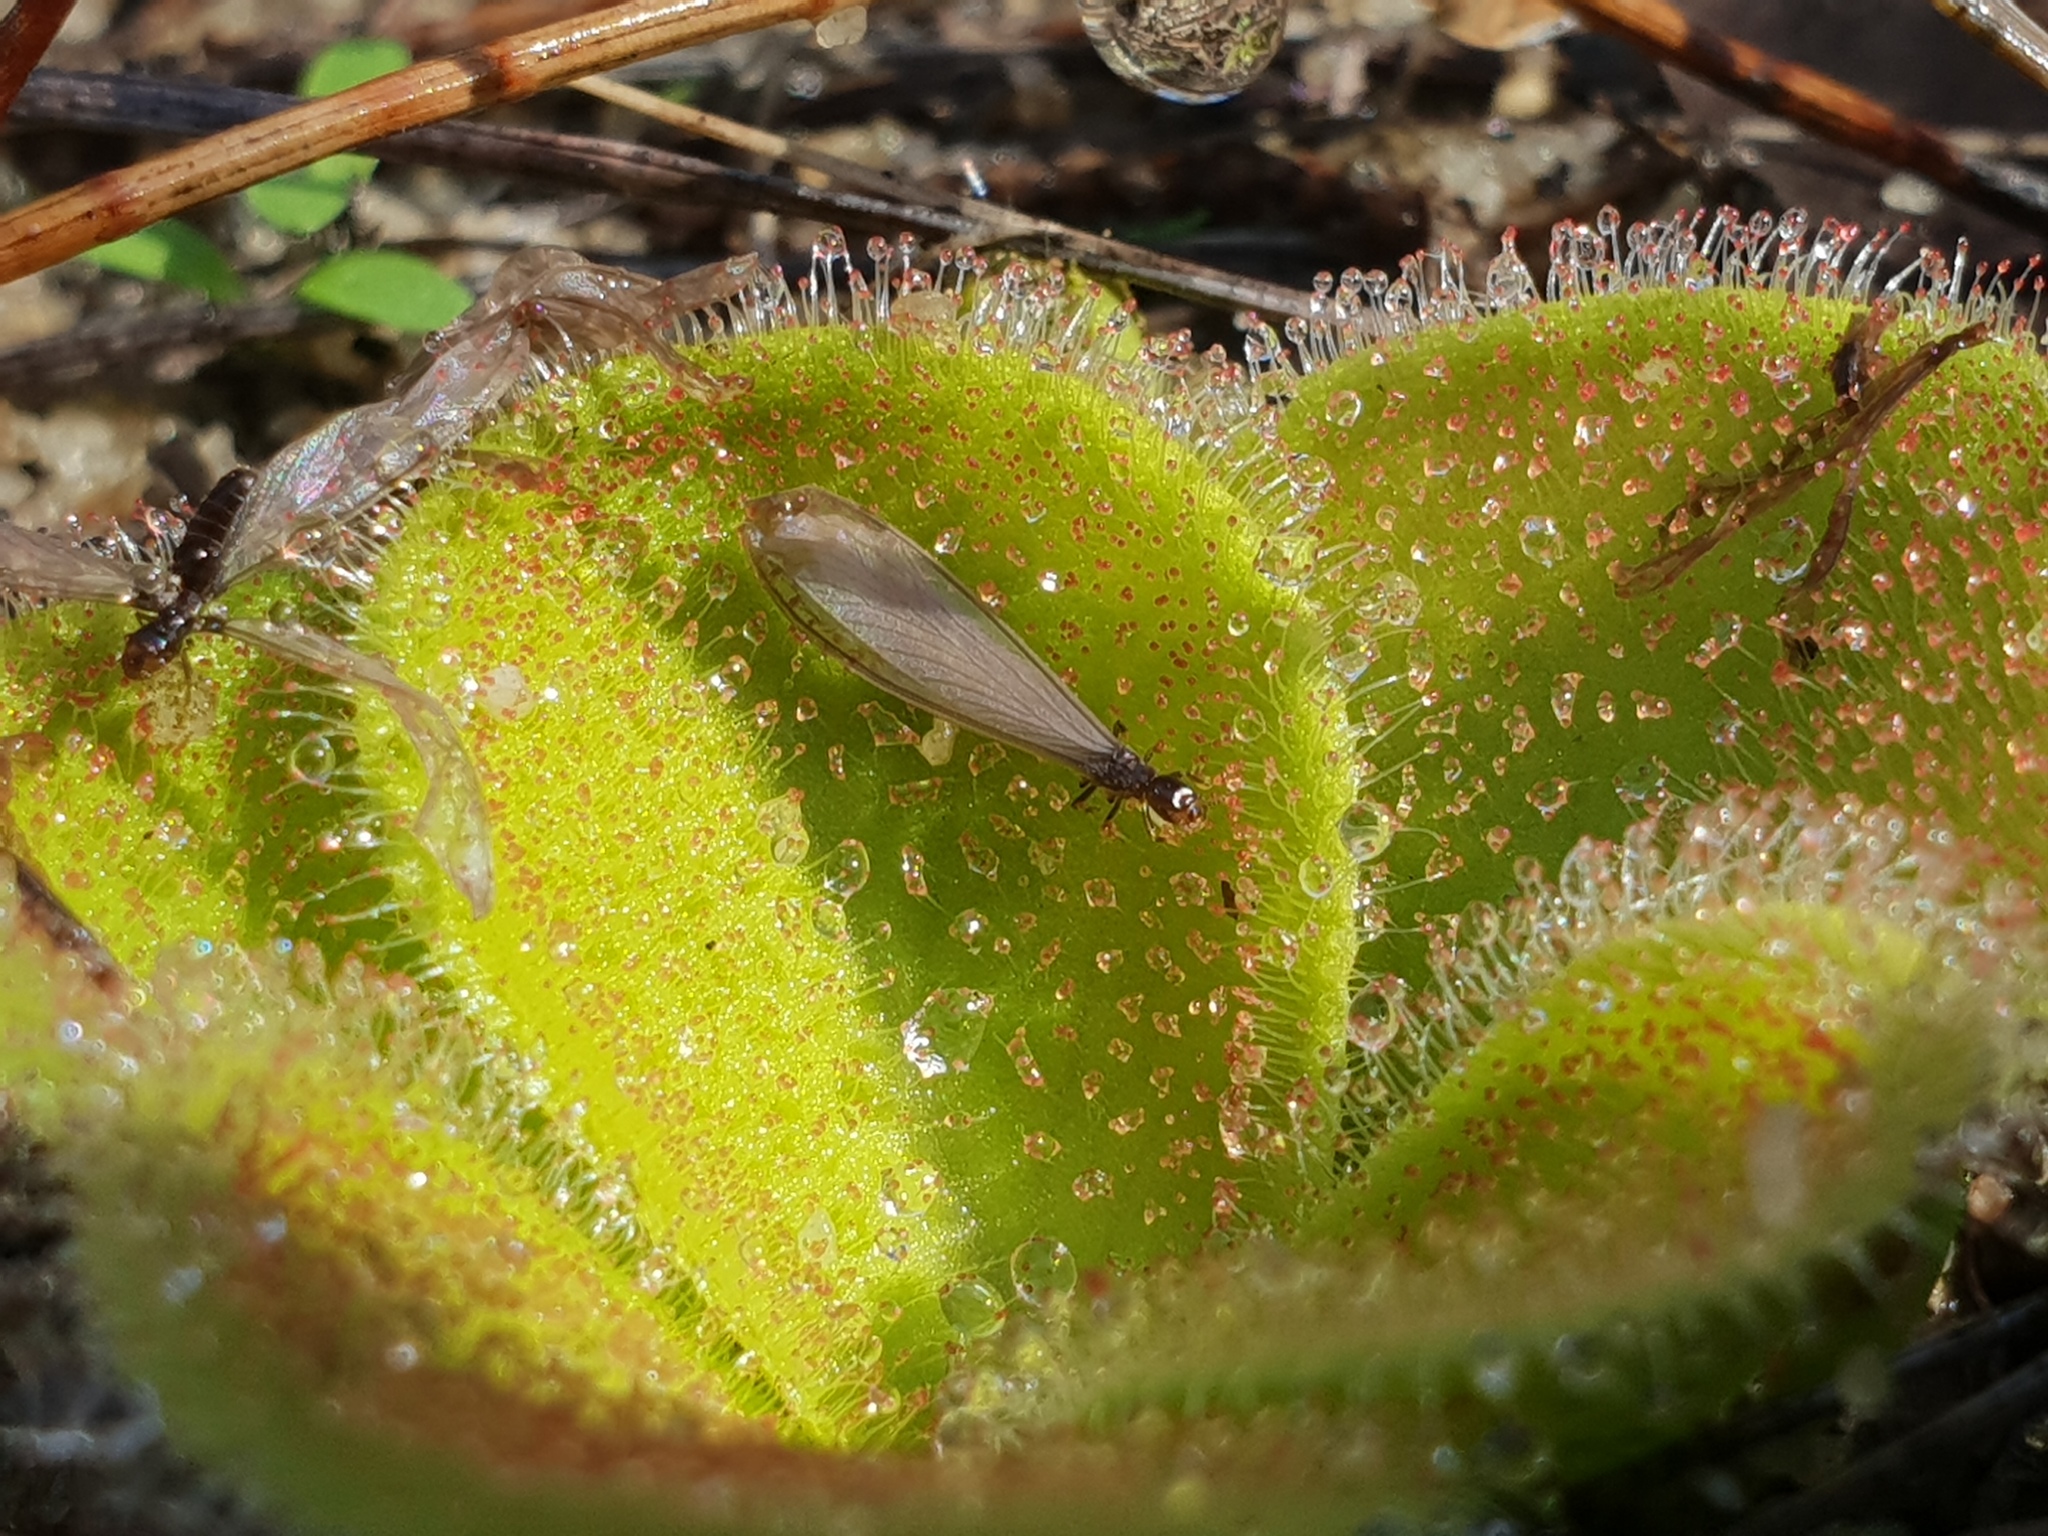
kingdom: Plantae
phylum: Tracheophyta
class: Magnoliopsida
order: Caryophyllales
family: Droseraceae
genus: Drosera
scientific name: Drosera erythrorhiza
